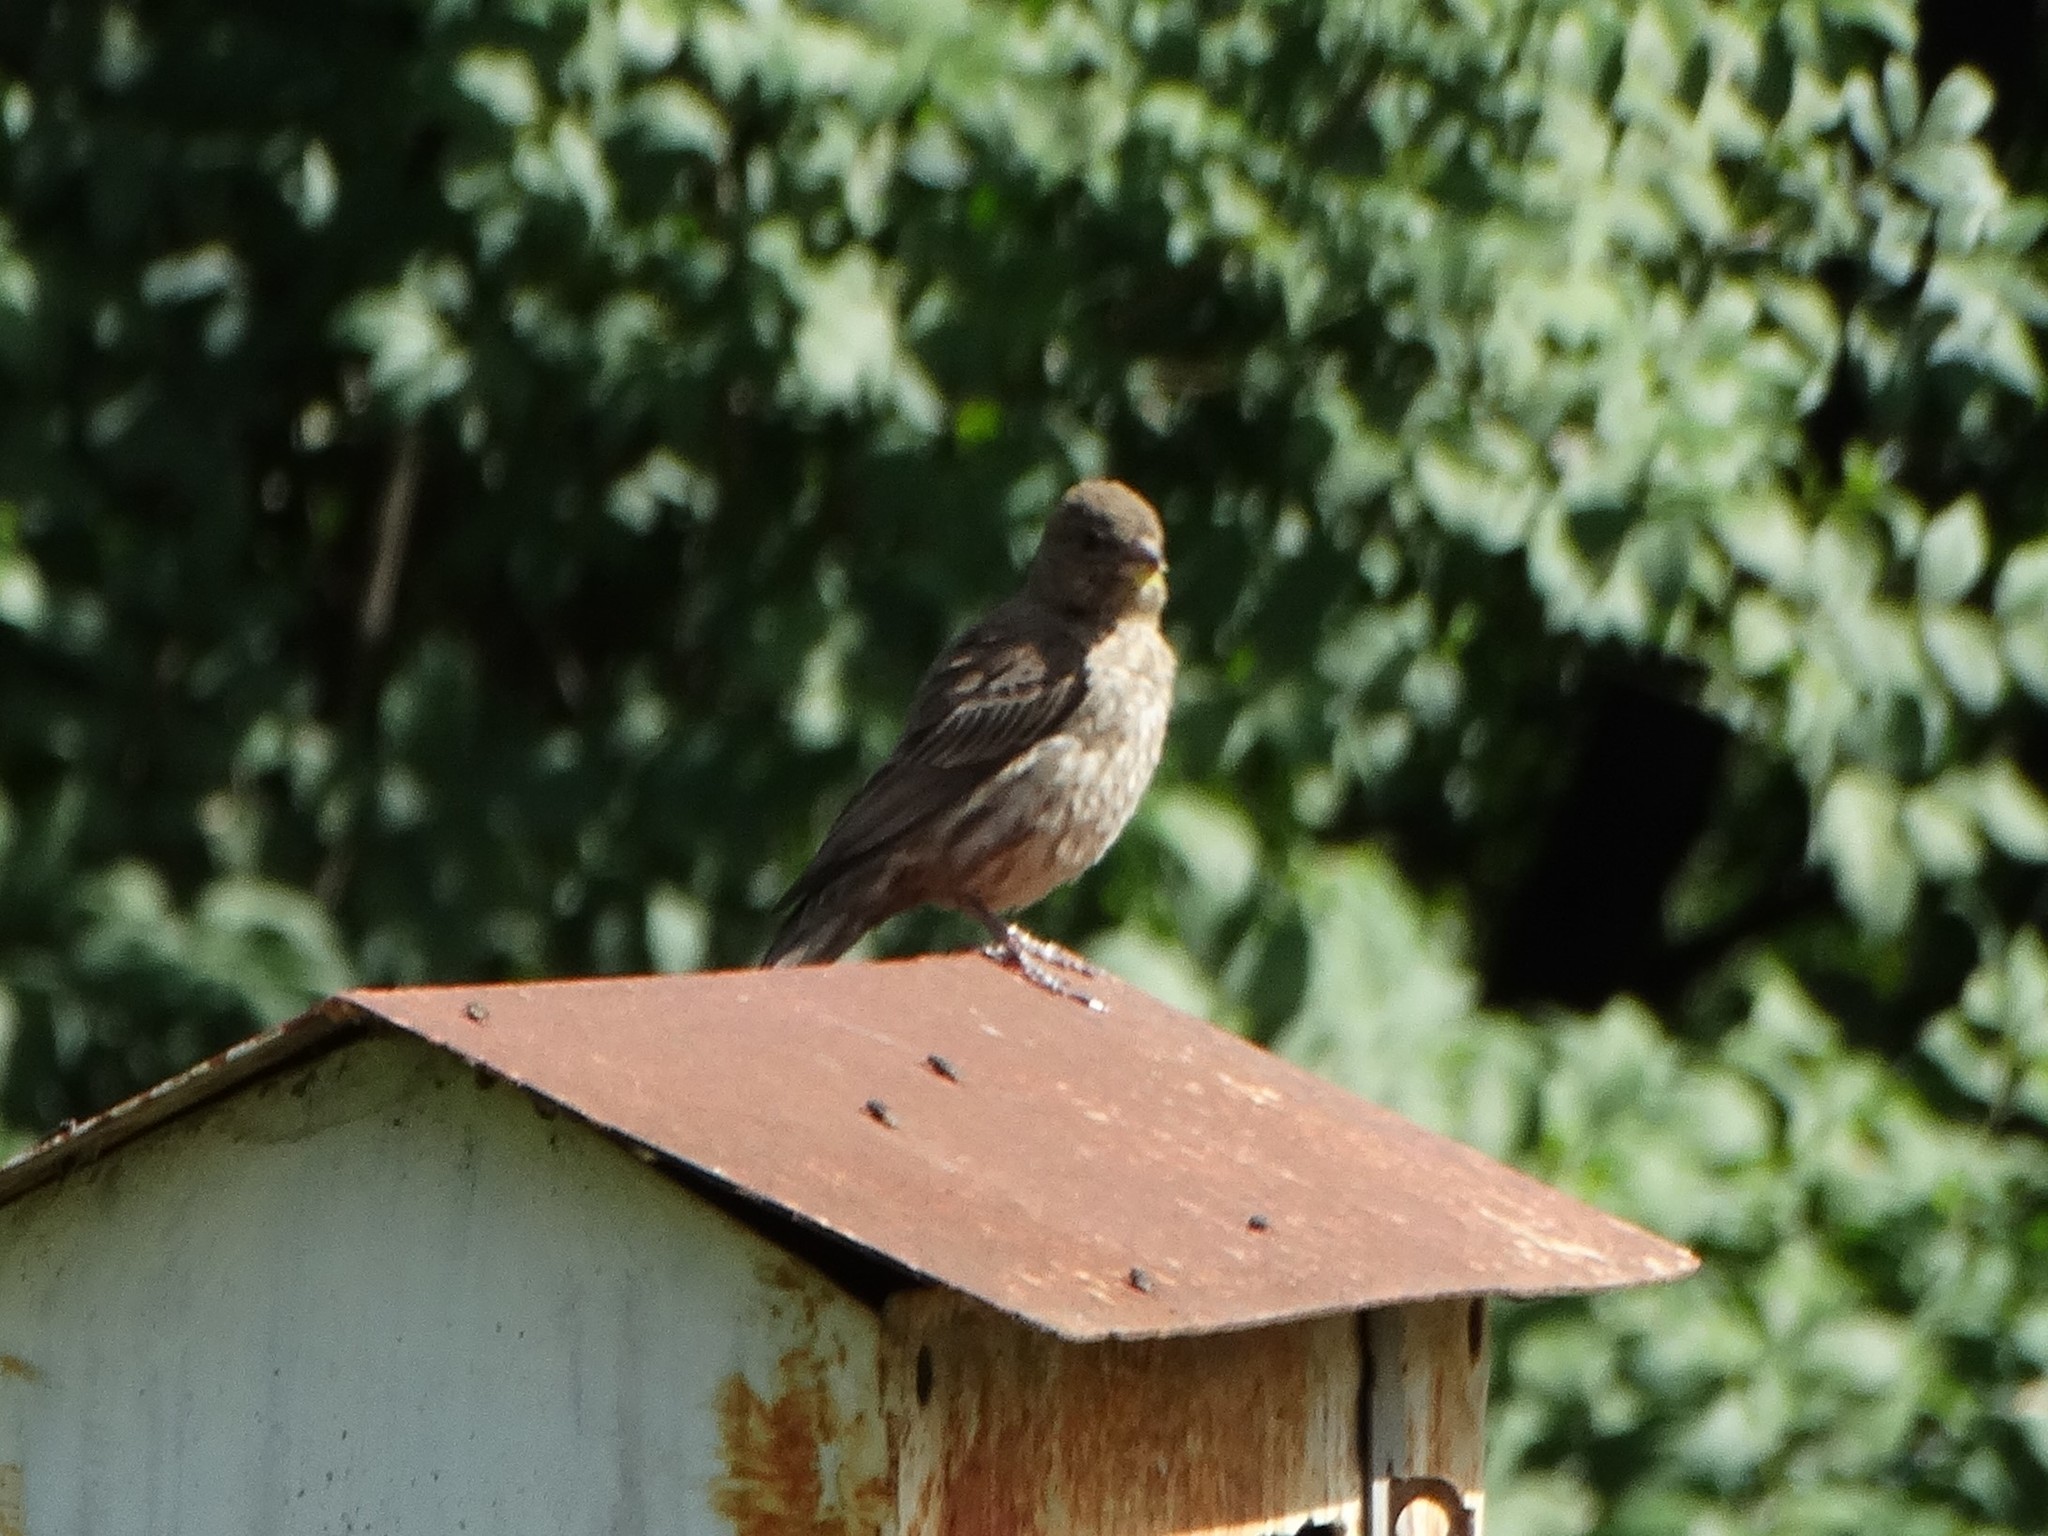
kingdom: Animalia
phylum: Chordata
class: Aves
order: Passeriformes
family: Fringillidae
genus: Haemorhous
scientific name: Haemorhous mexicanus
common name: House finch
